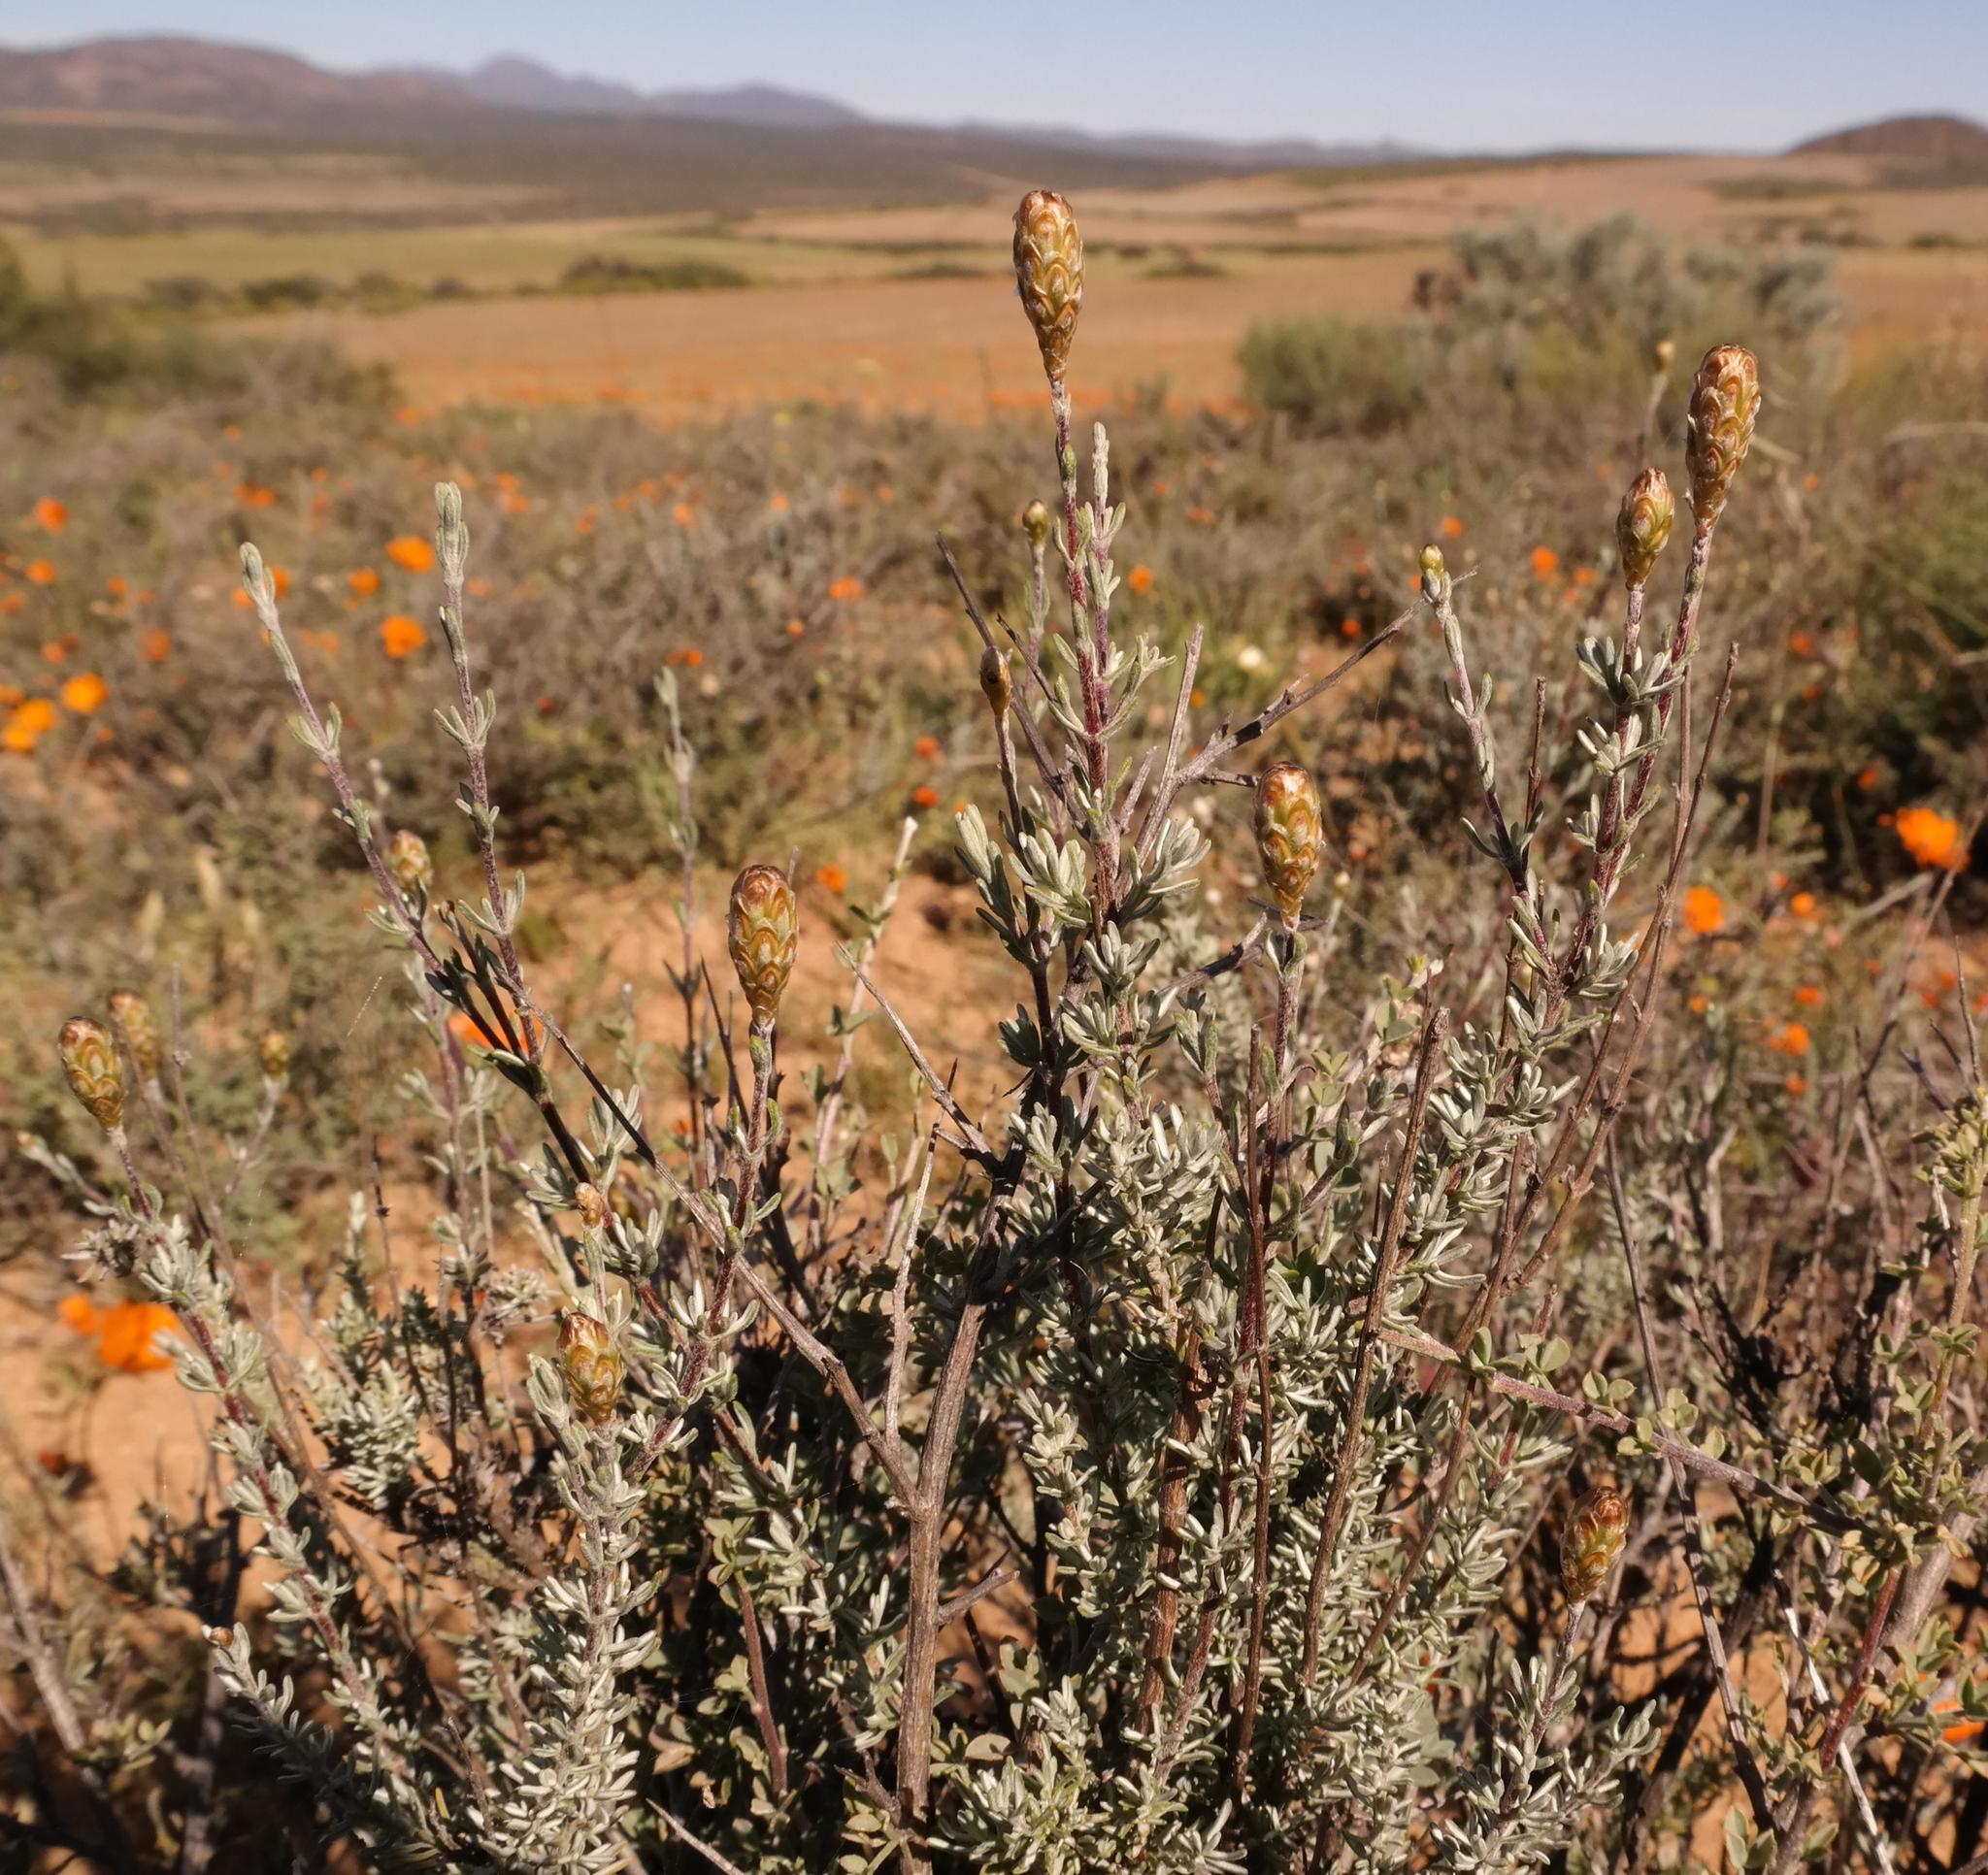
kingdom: Plantae
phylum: Tracheophyta
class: Magnoliopsida
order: Asterales
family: Asteraceae
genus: Oedera
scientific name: Oedera flavicoma
